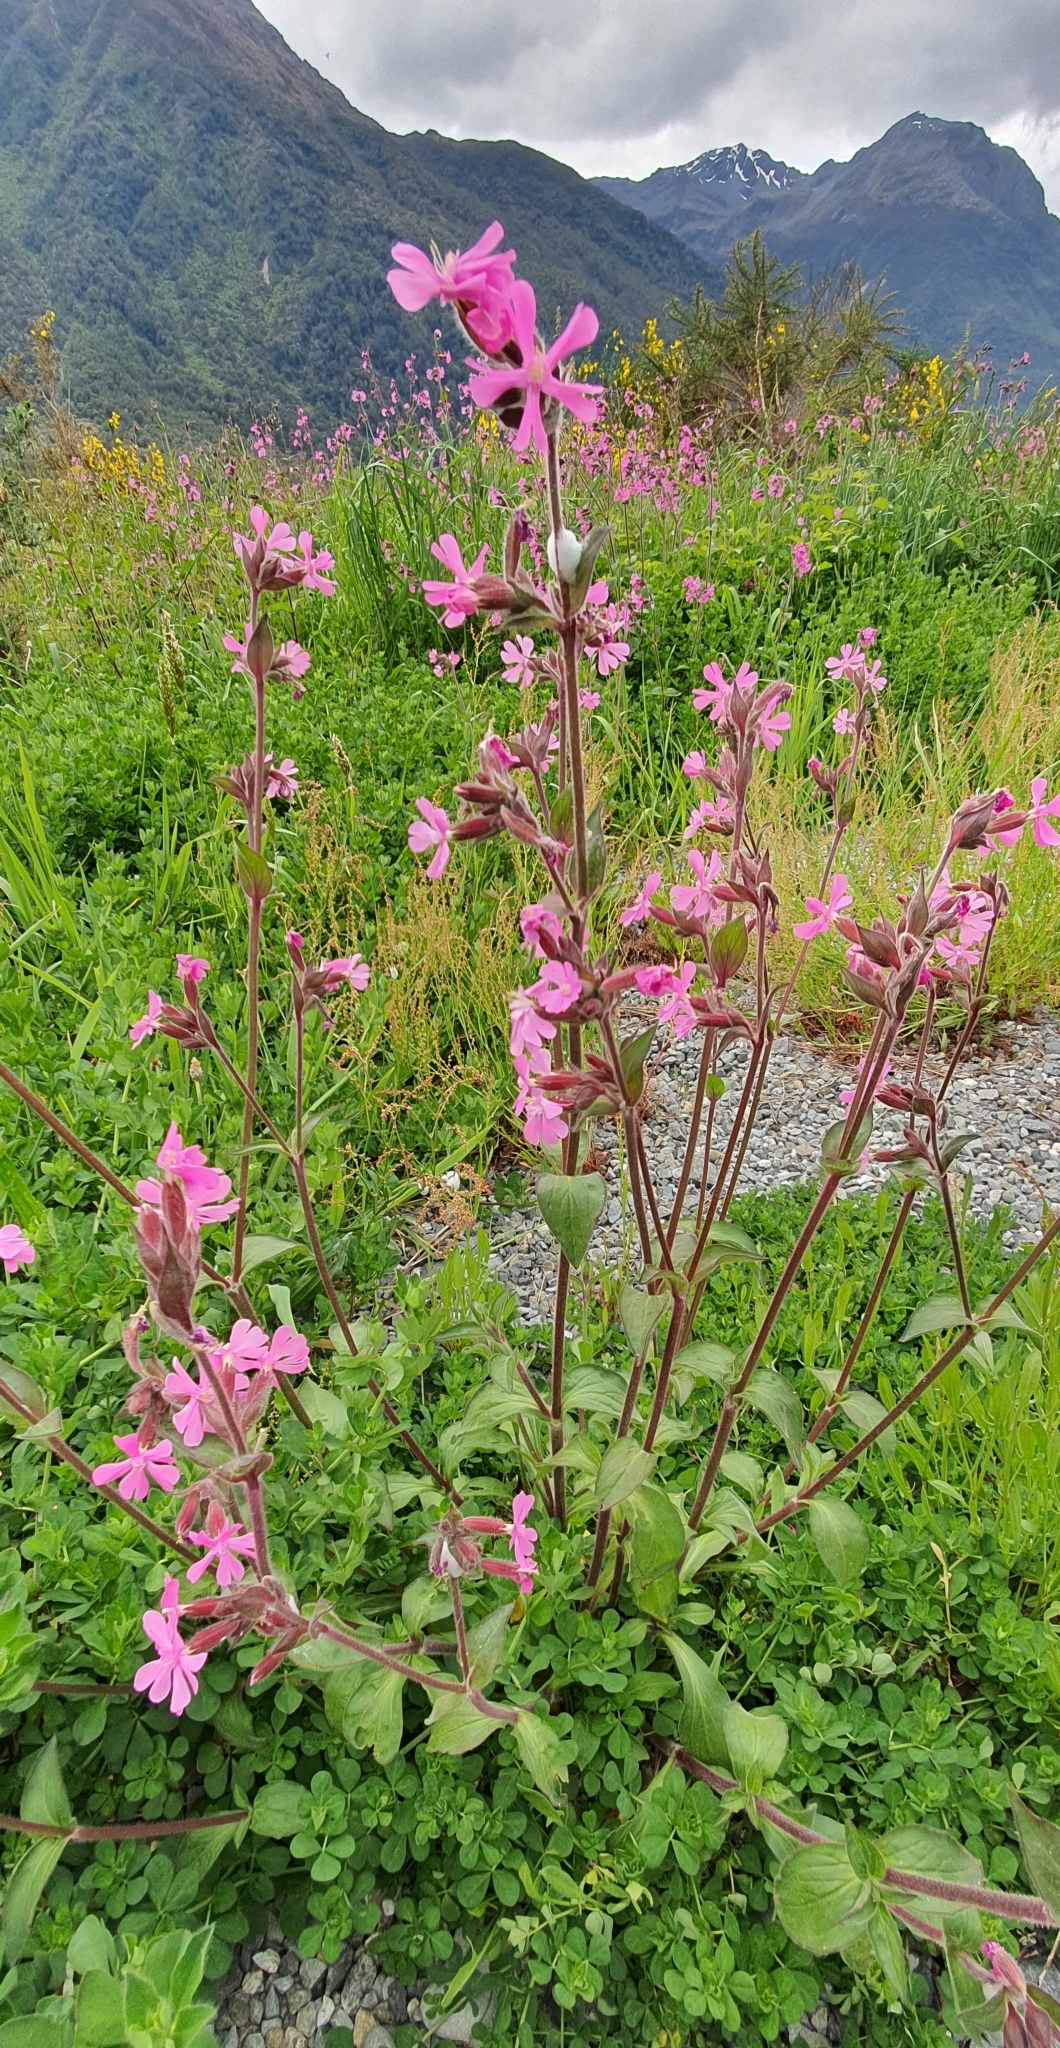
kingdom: Plantae
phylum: Tracheophyta
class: Magnoliopsida
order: Caryophyllales
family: Caryophyllaceae
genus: Silene
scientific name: Silene dioica
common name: Red campion
